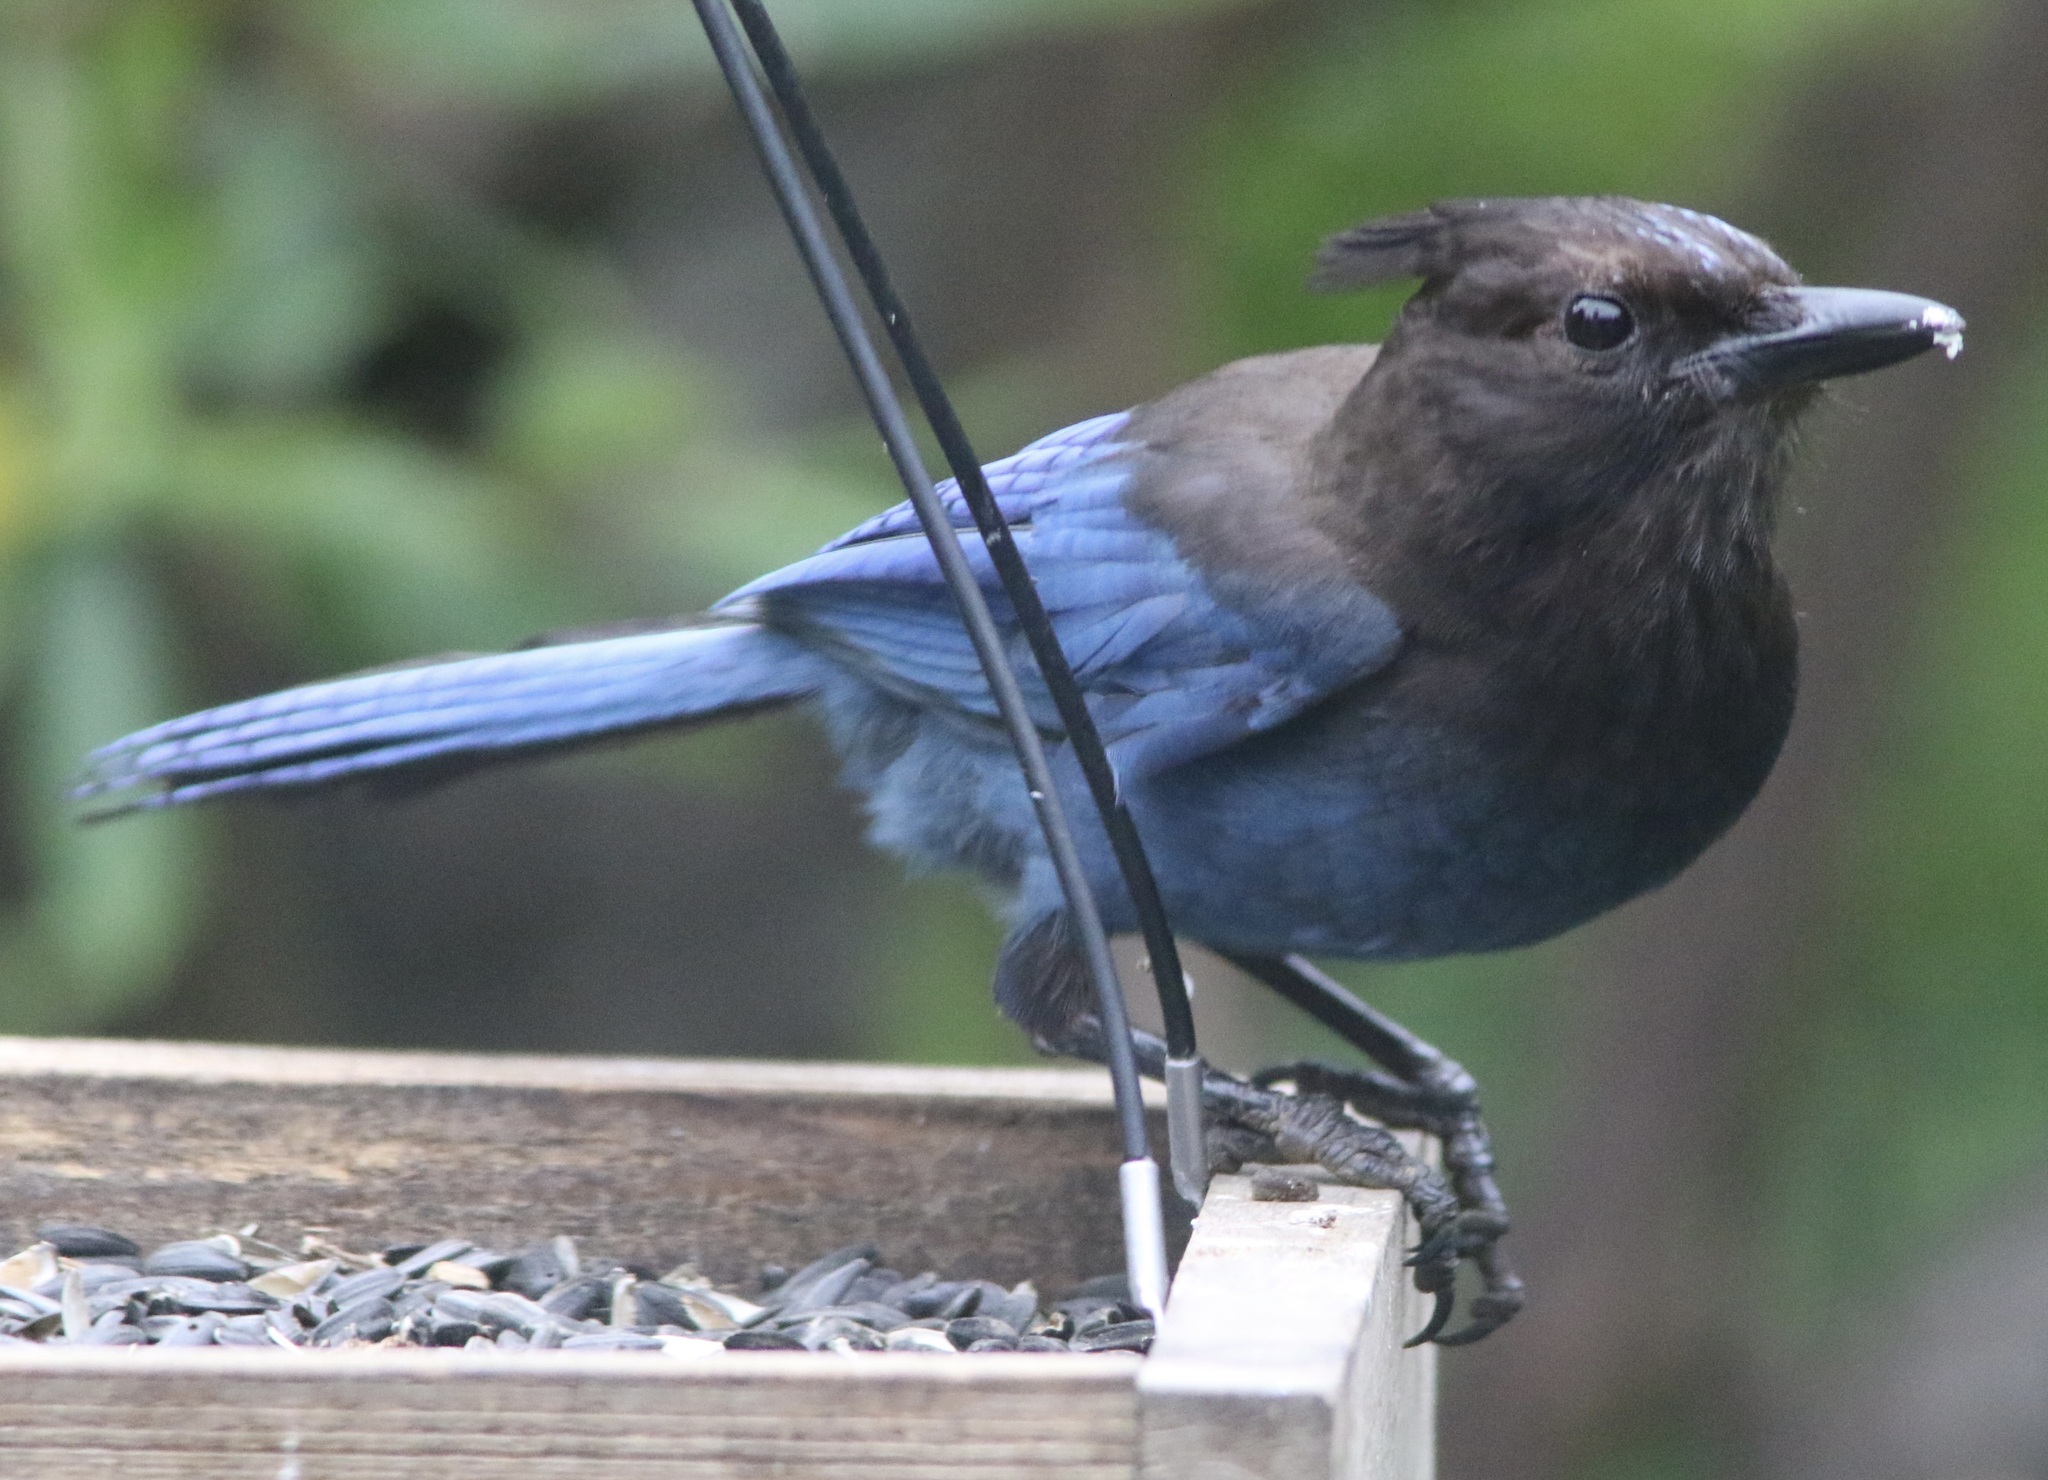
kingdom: Animalia
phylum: Chordata
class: Aves
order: Passeriformes
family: Corvidae
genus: Cyanocitta
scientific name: Cyanocitta stelleri
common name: Steller's jay
